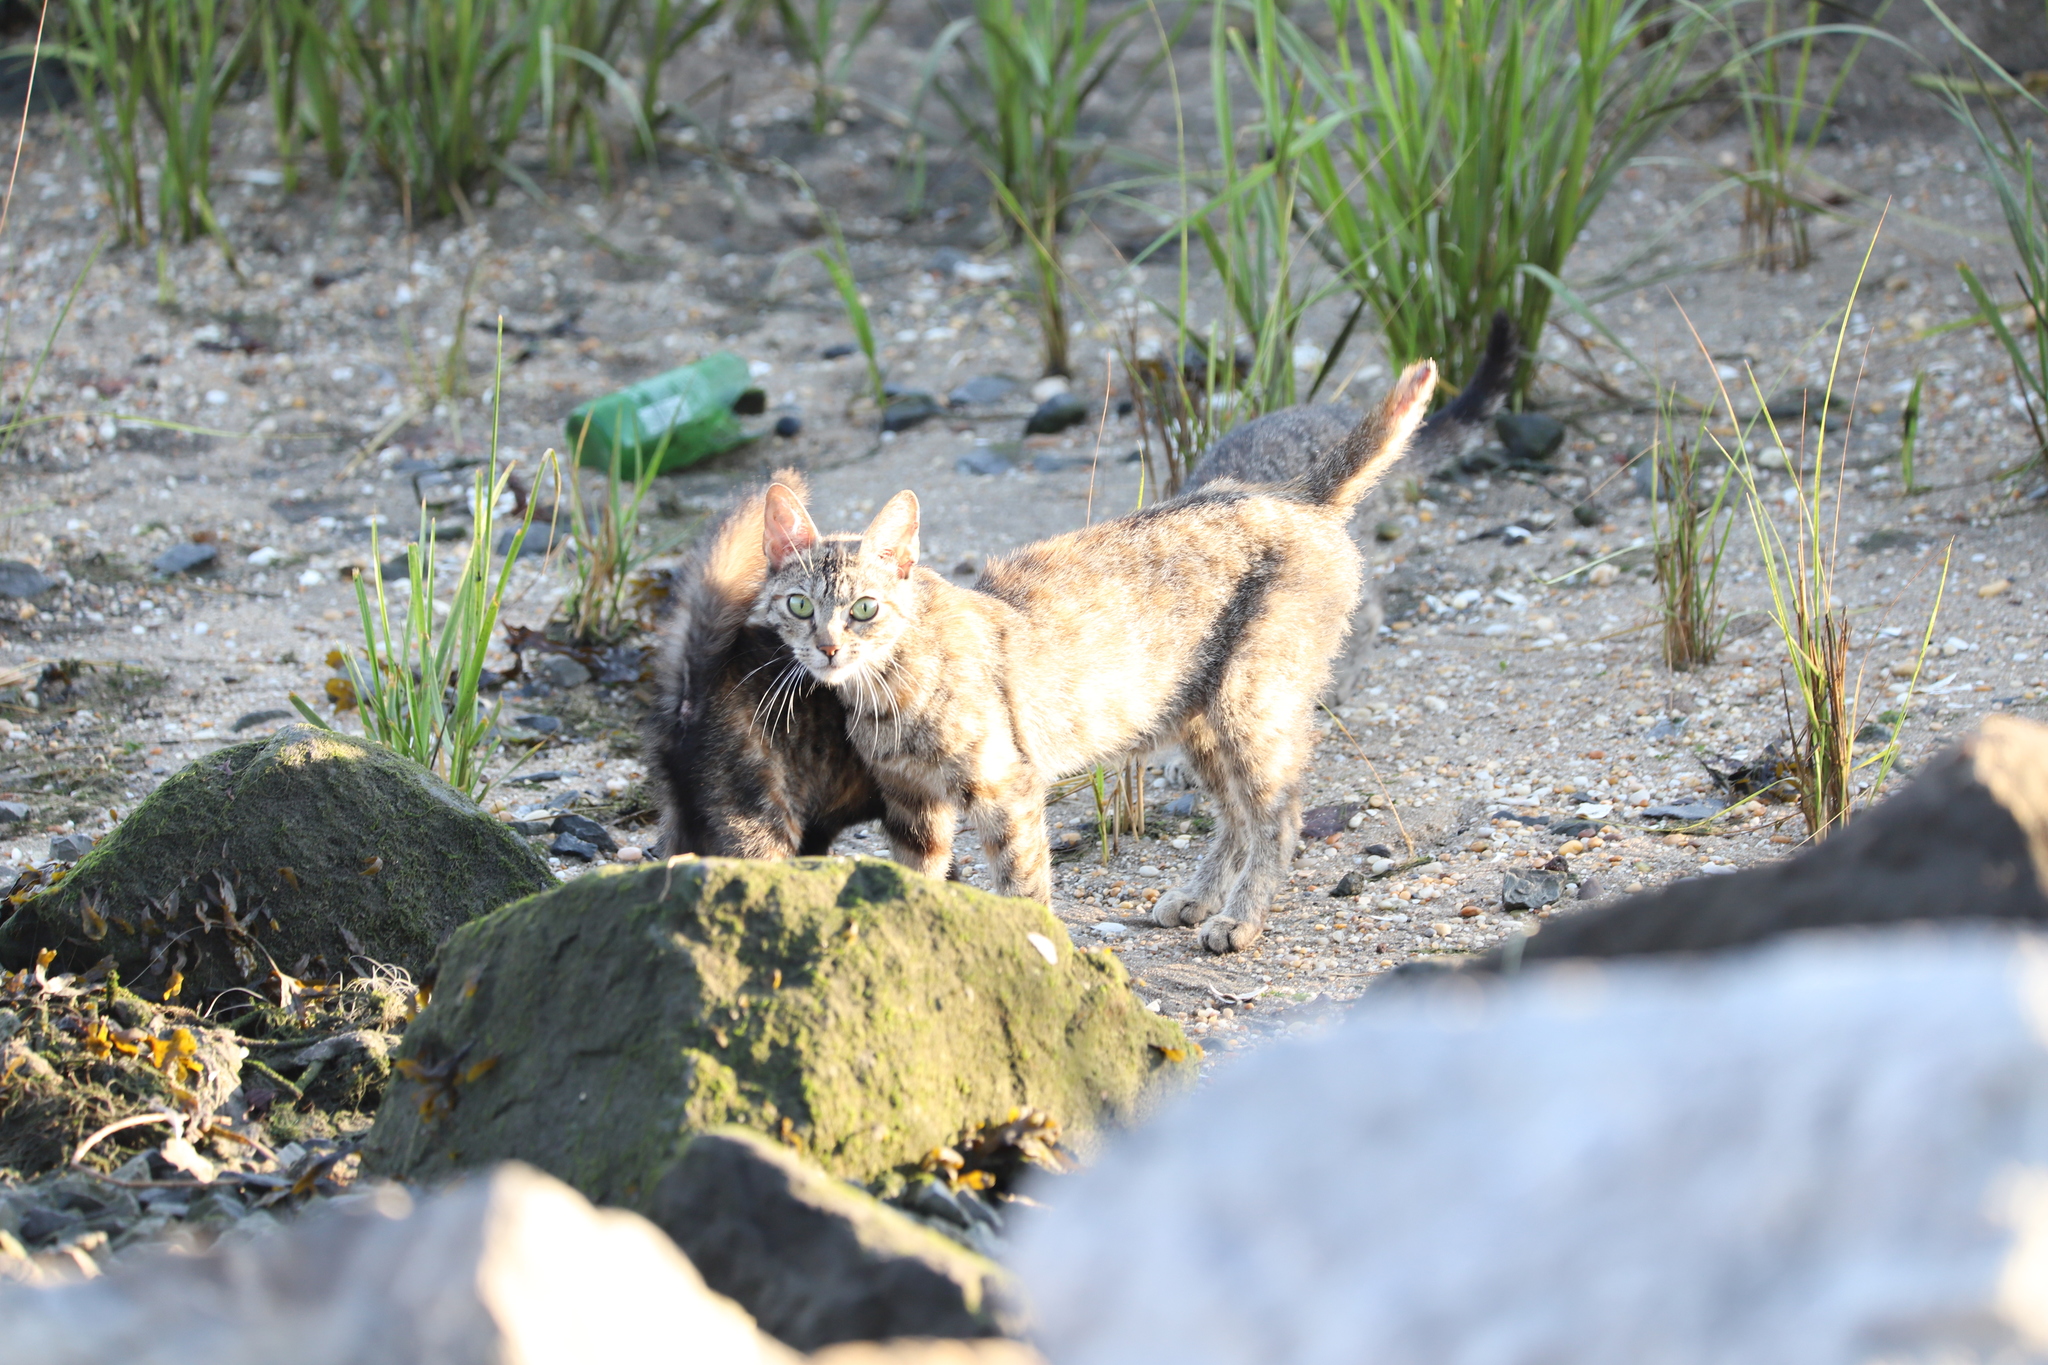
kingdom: Animalia
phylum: Chordata
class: Mammalia
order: Carnivora
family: Felidae
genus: Felis
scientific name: Felis catus
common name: Domestic cat
